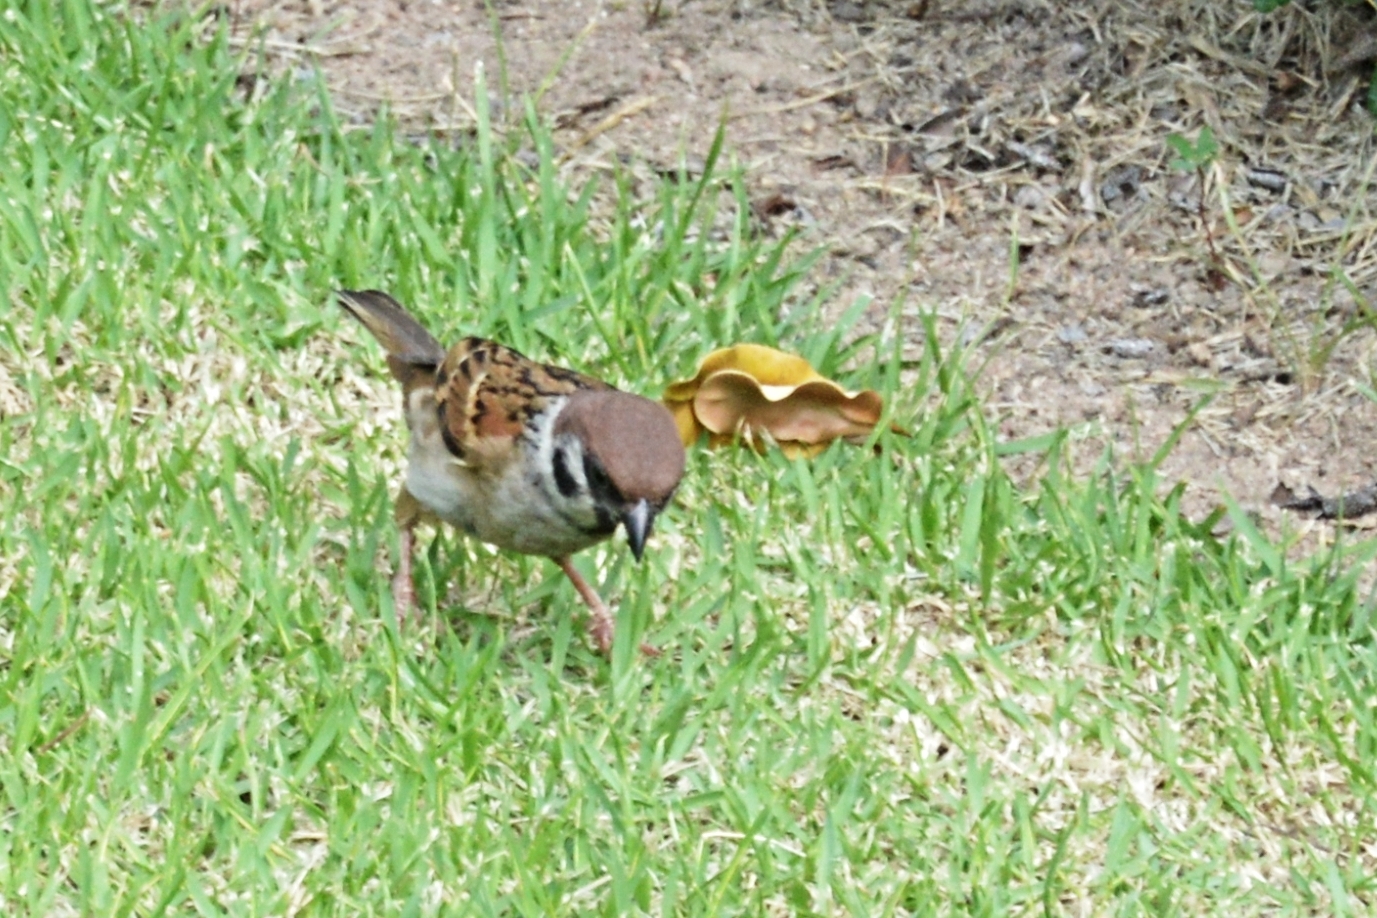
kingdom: Animalia
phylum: Chordata
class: Aves
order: Passeriformes
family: Passeridae
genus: Passer
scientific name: Passer montanus
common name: Eurasian tree sparrow
